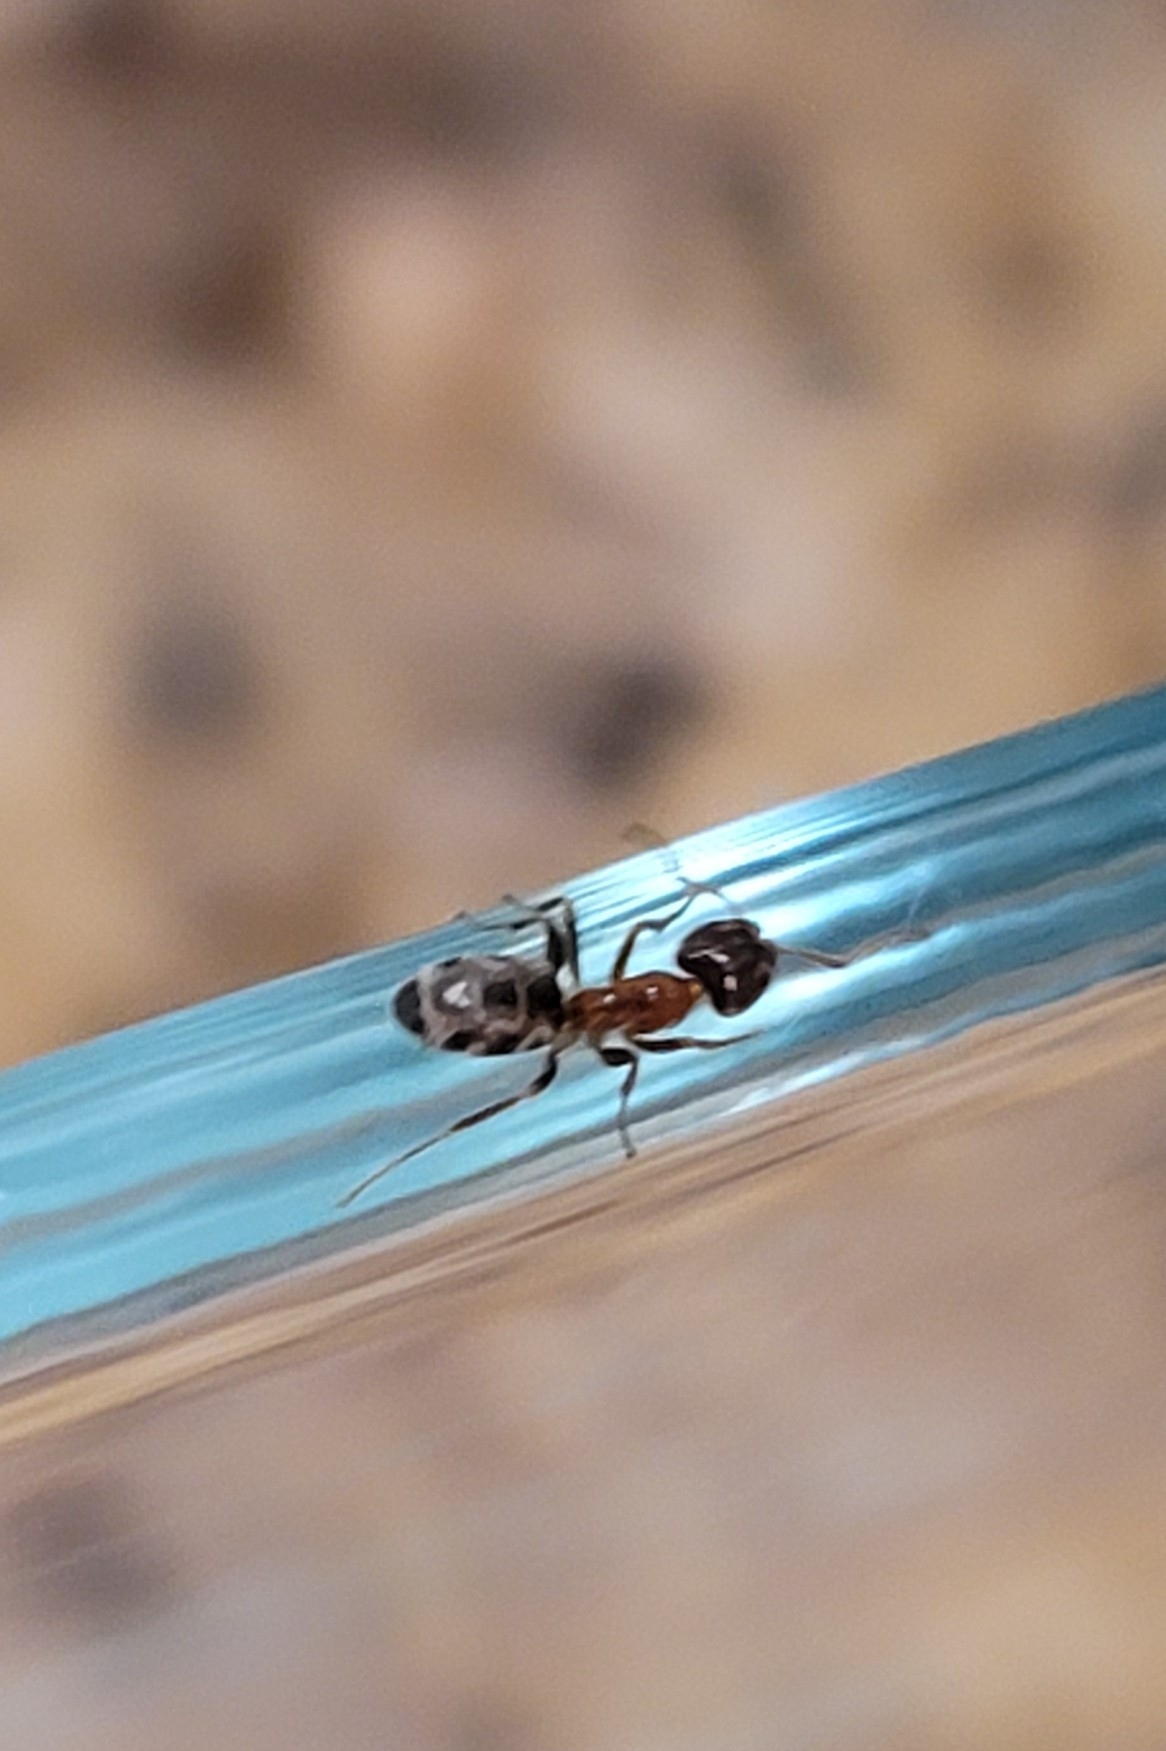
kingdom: Animalia
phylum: Arthropoda
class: Insecta
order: Hymenoptera
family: Formicidae
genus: Liometopum
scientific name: Liometopum occidentale
